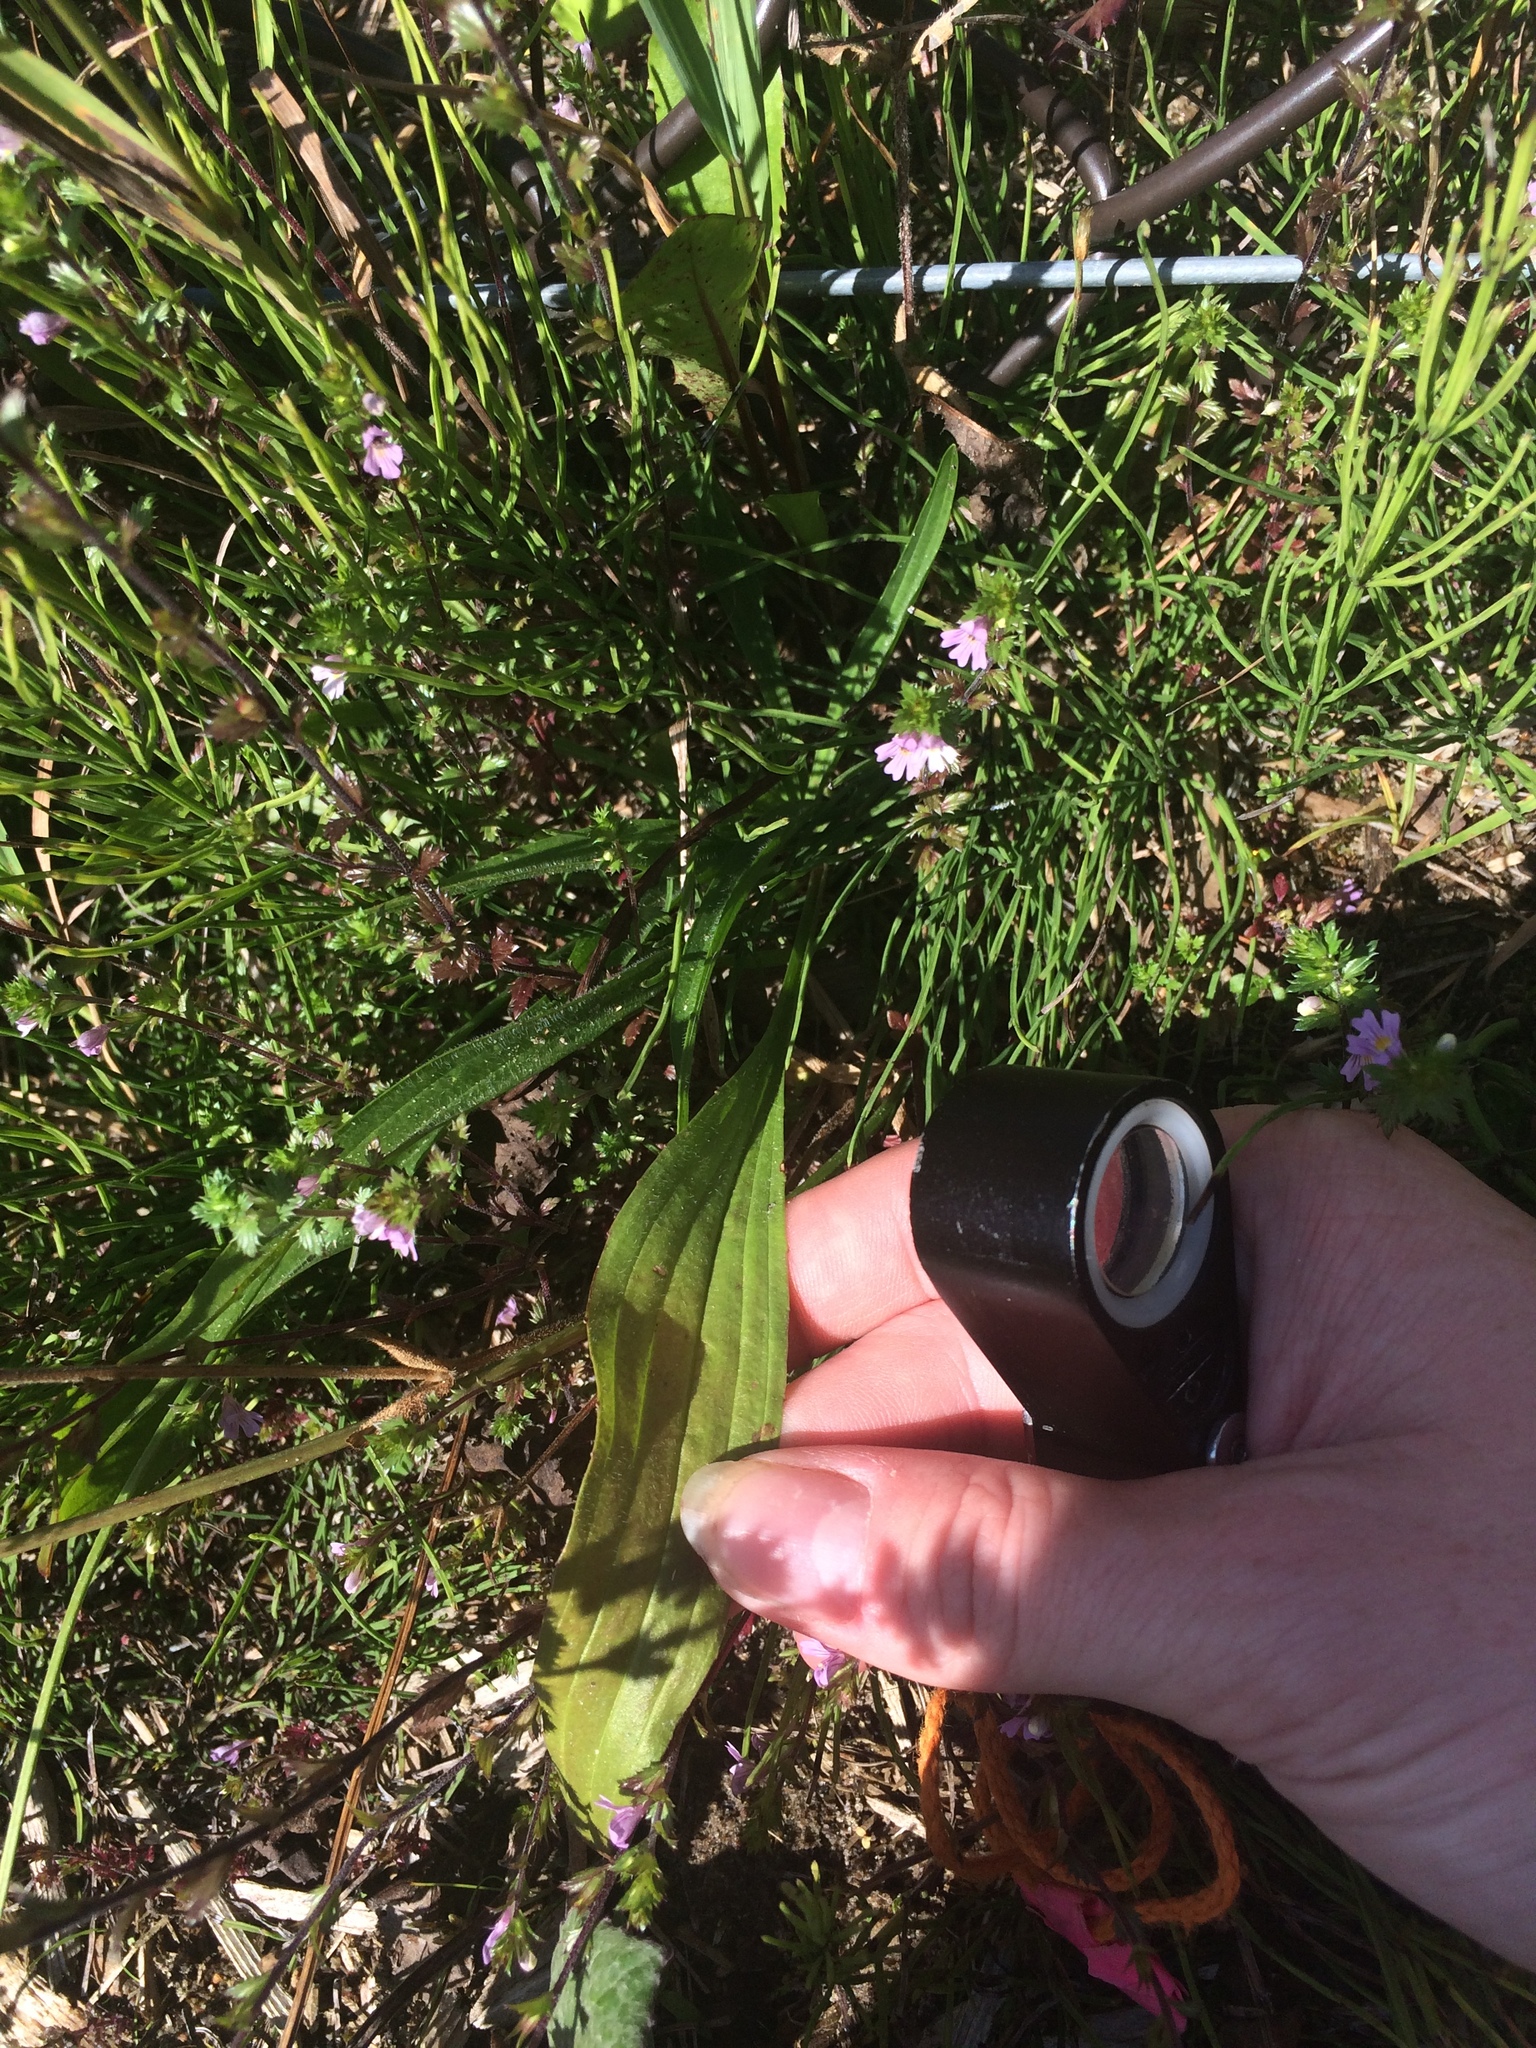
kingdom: Plantae
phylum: Tracheophyta
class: Magnoliopsida
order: Lamiales
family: Plantaginaceae
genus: Plantago
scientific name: Plantago lanceolata
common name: Ribwort plantain
